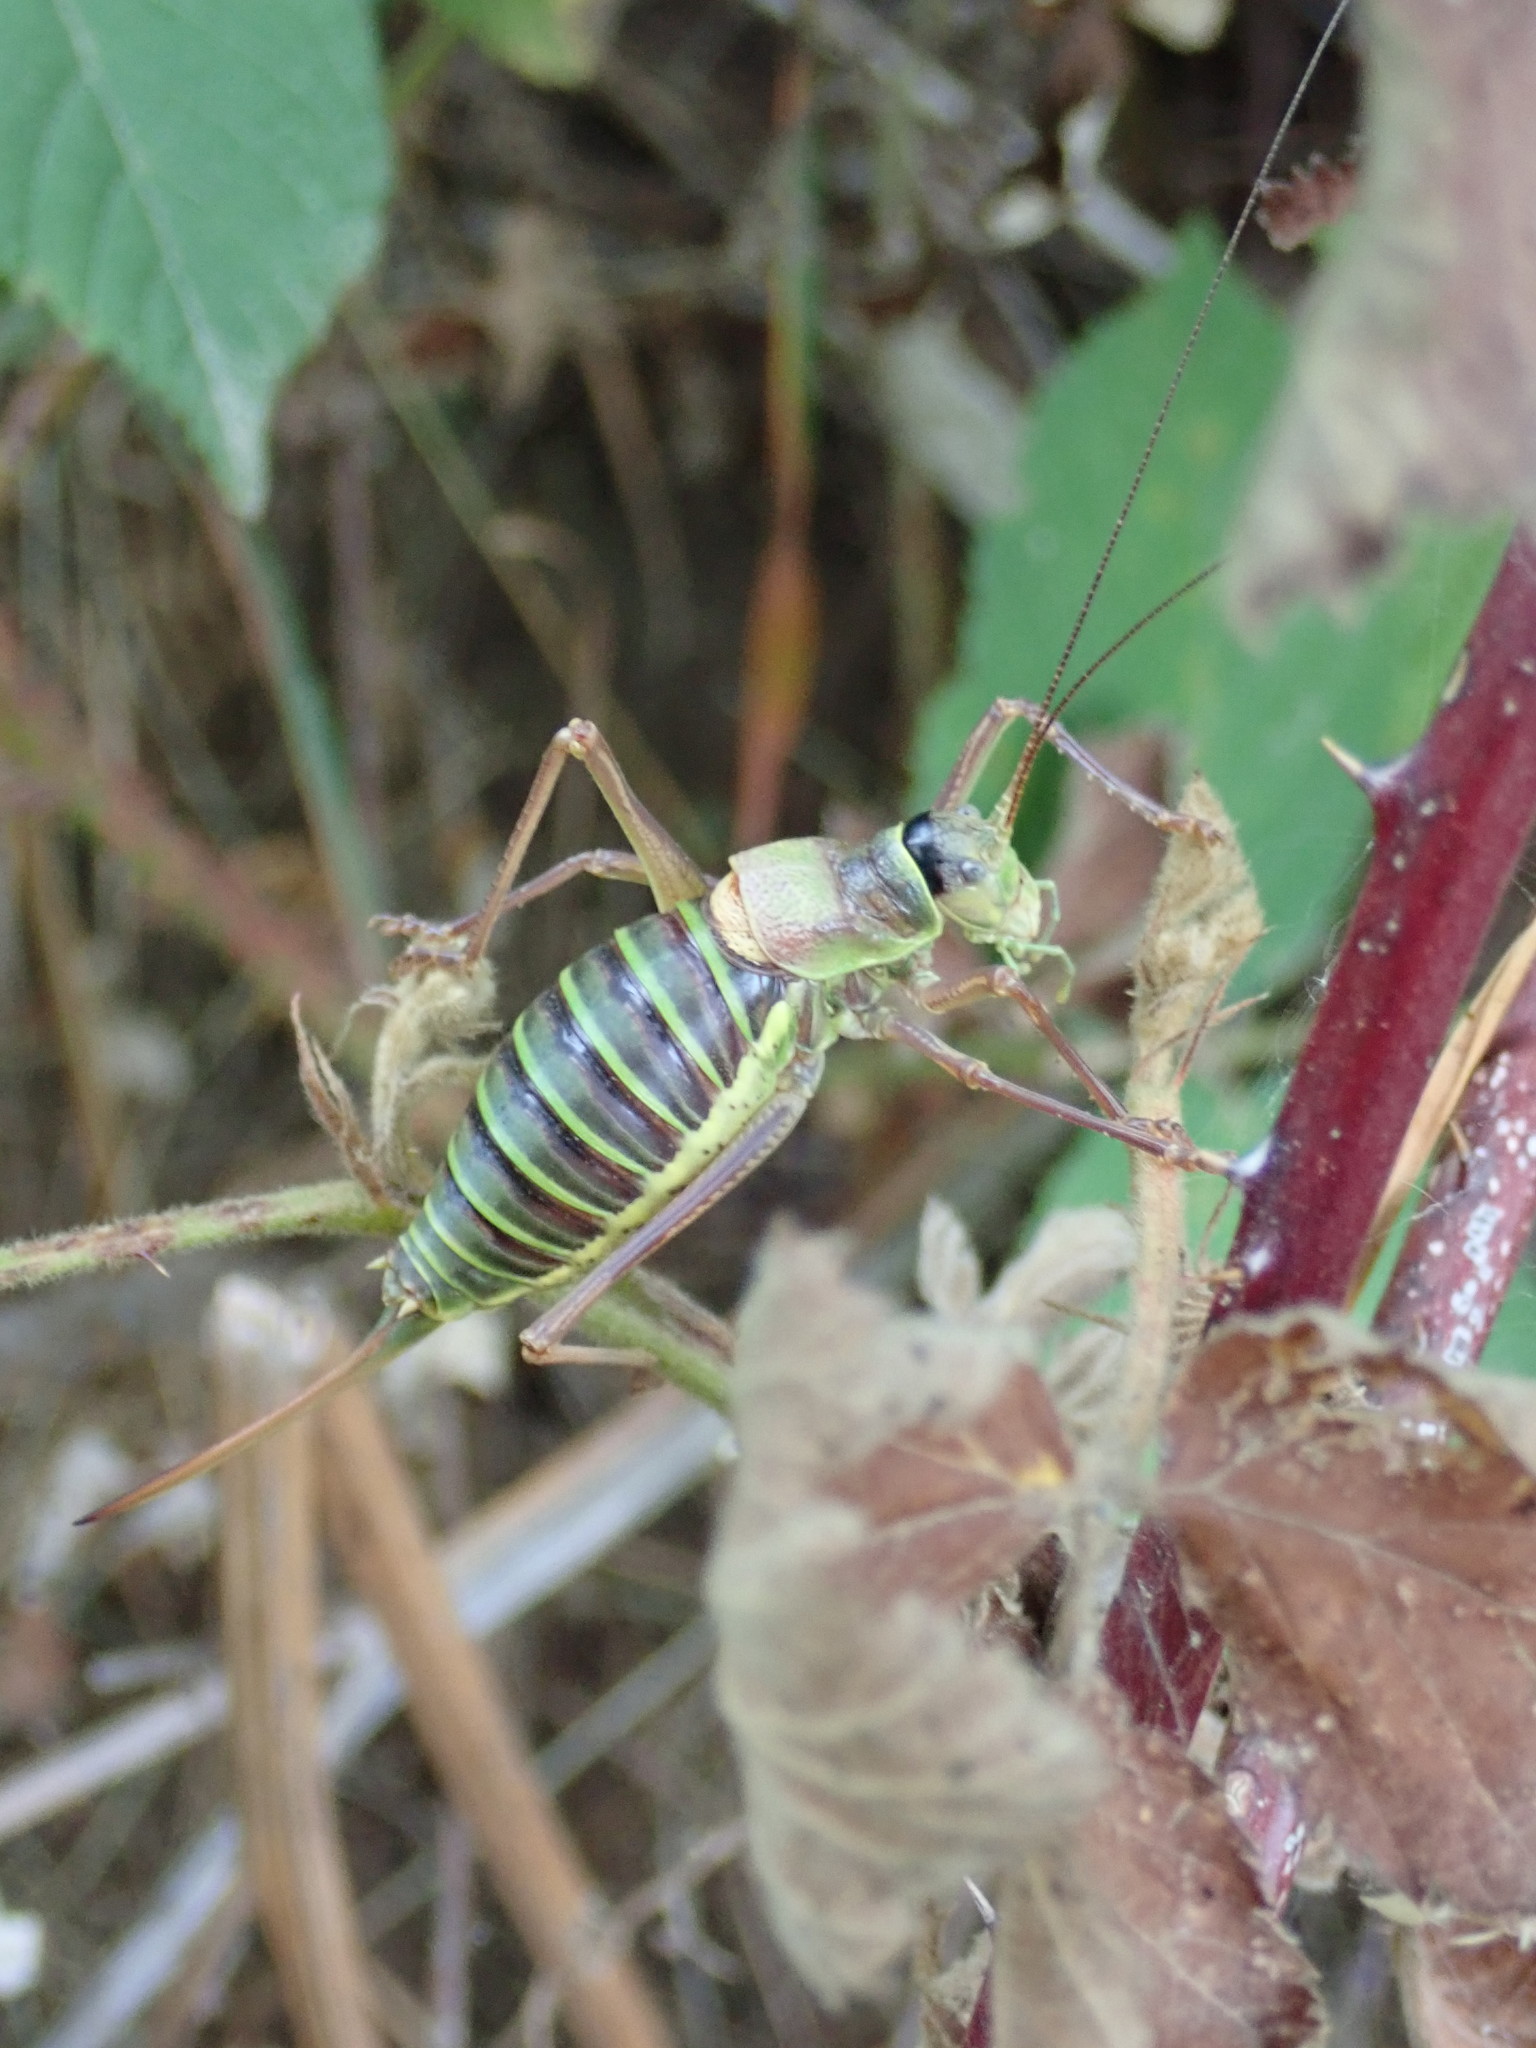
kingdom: Animalia
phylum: Arthropoda
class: Insecta
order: Orthoptera
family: Tettigoniidae
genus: Ephippiger
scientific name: Ephippiger diurnus
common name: Western saddle bush-cricket
